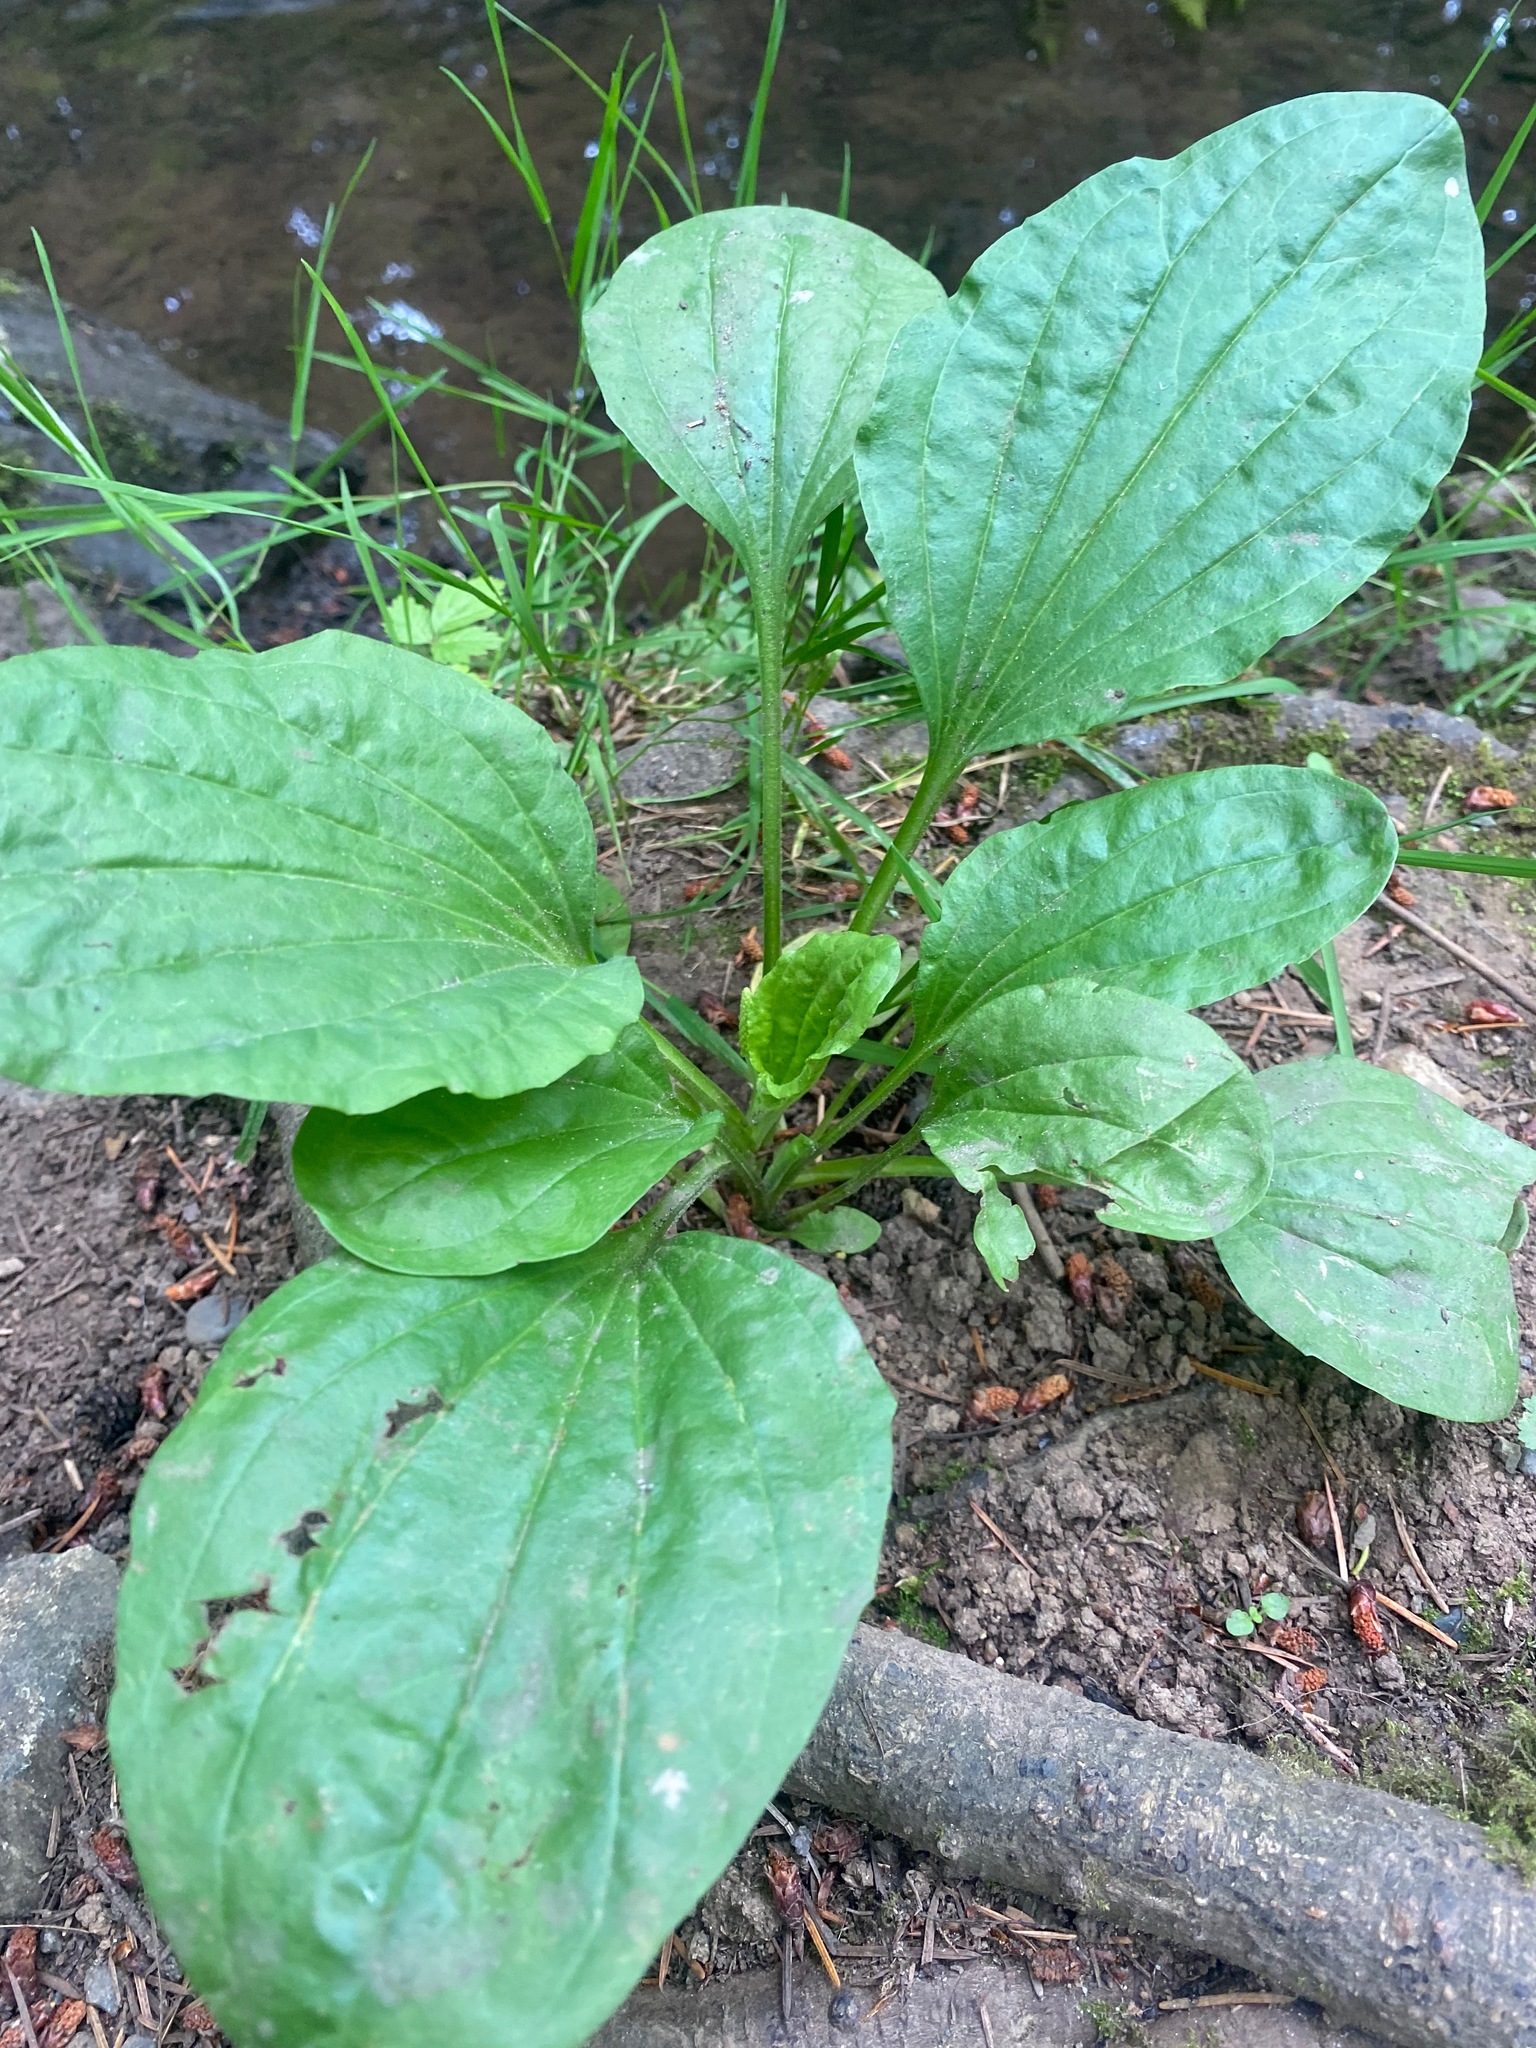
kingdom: Plantae
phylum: Tracheophyta
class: Magnoliopsida
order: Lamiales
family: Plantaginaceae
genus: Plantago
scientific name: Plantago major
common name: Common plantain
